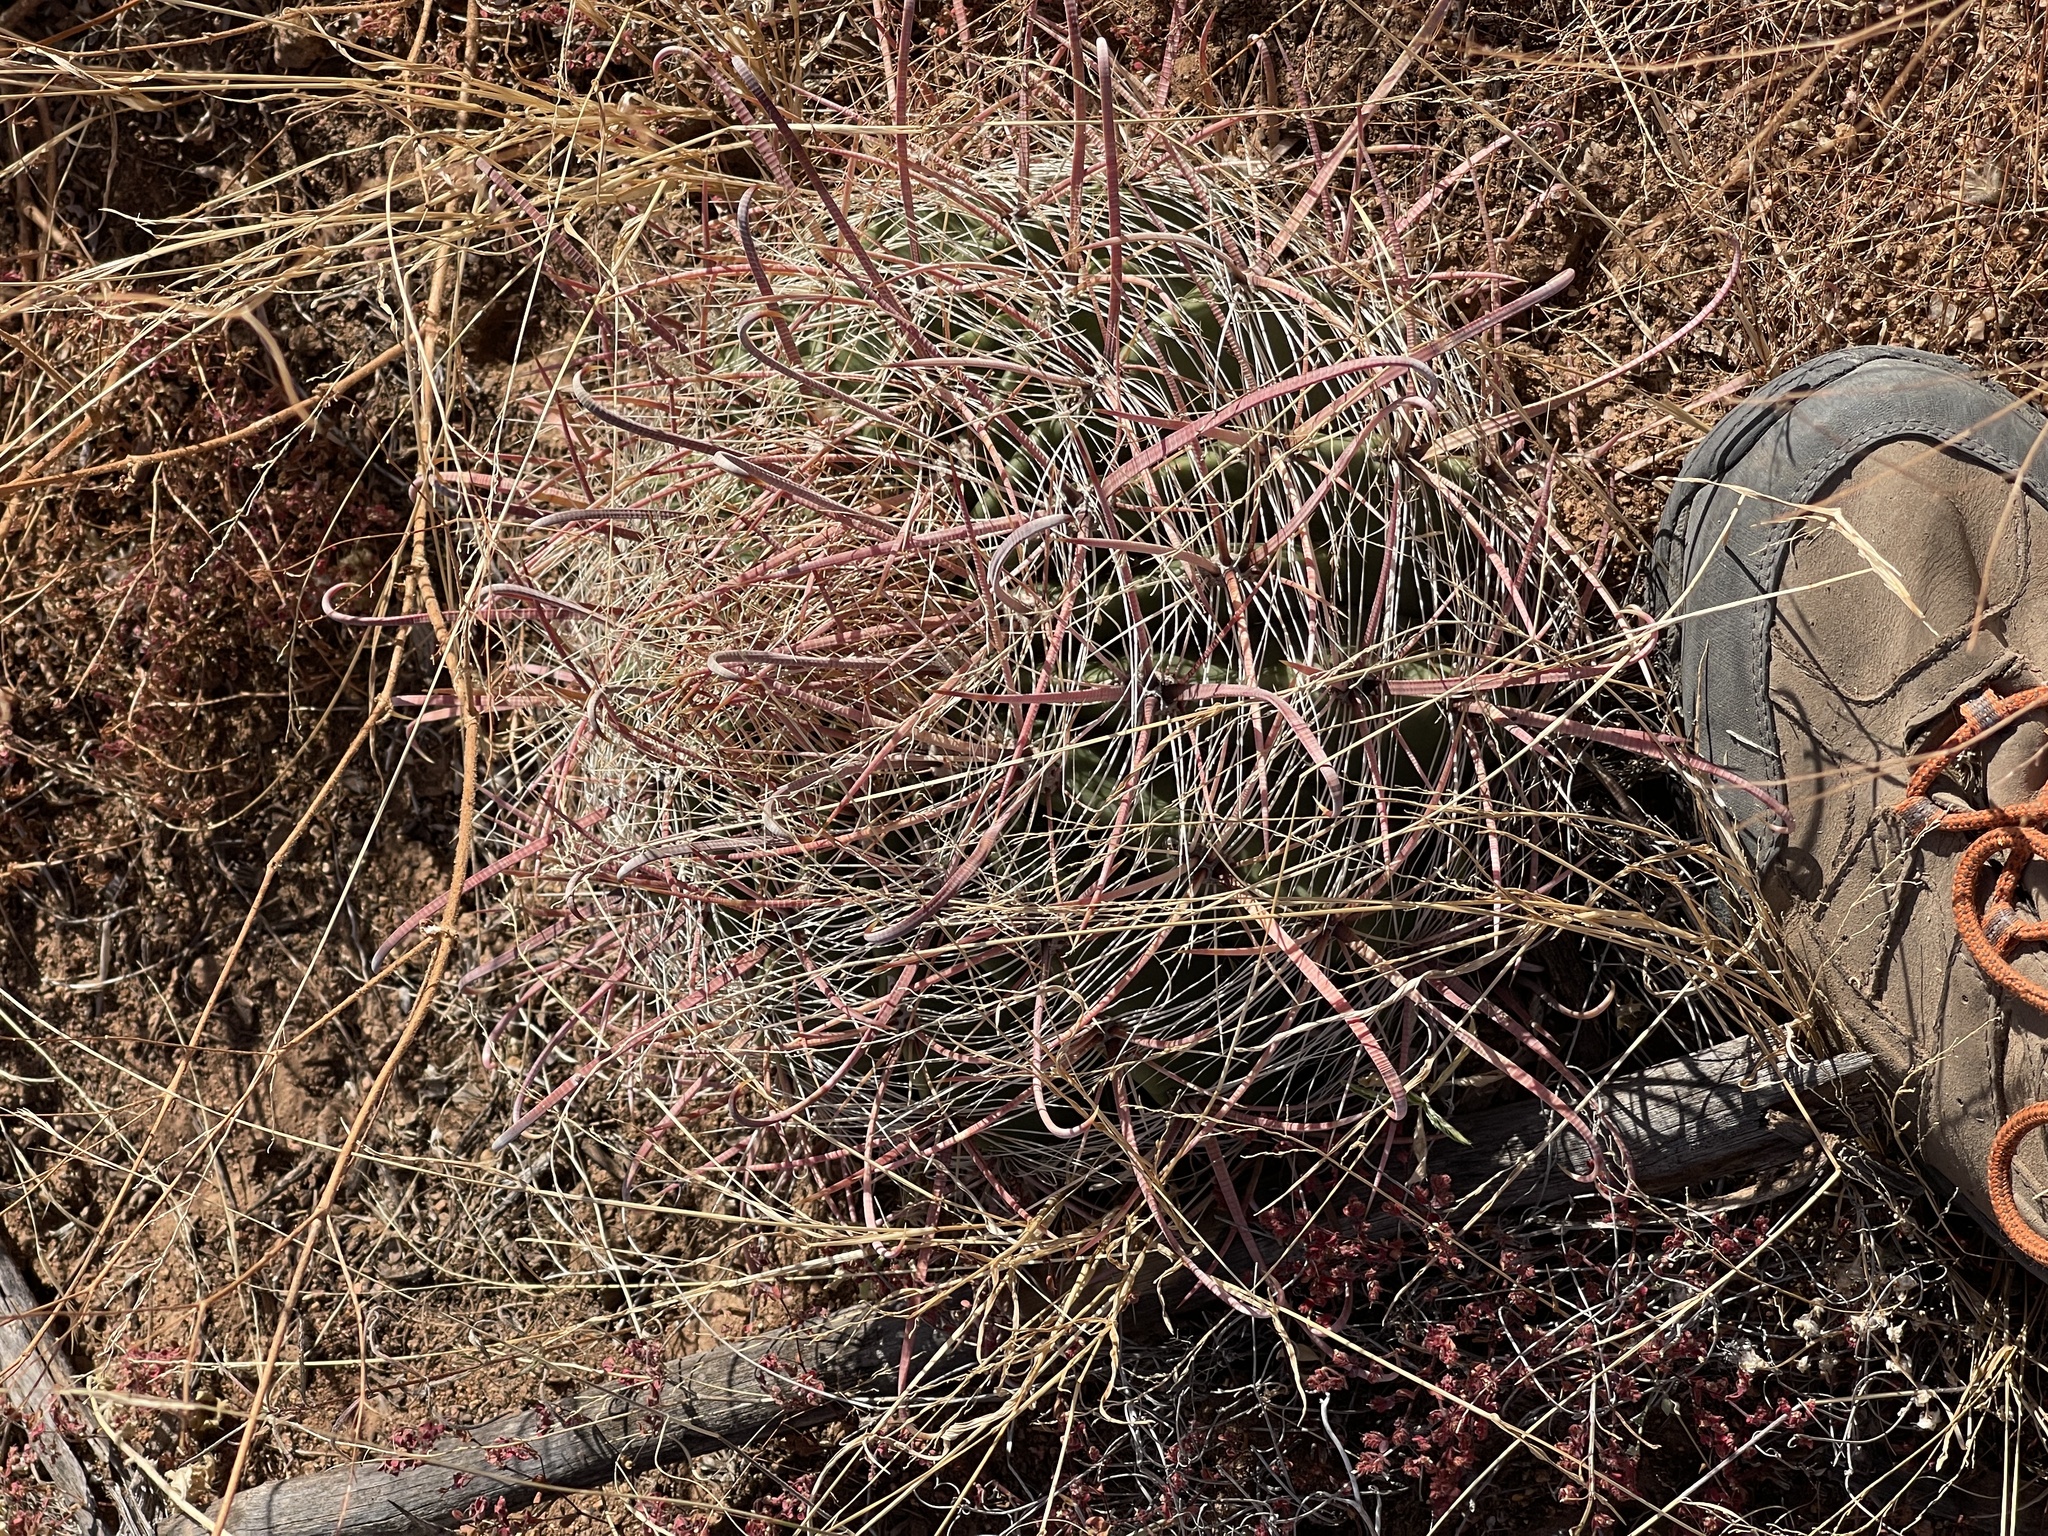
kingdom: Plantae
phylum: Tracheophyta
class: Magnoliopsida
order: Caryophyllales
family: Cactaceae
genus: Ferocactus
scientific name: Ferocactus wislizeni
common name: Candy barrel cactus
